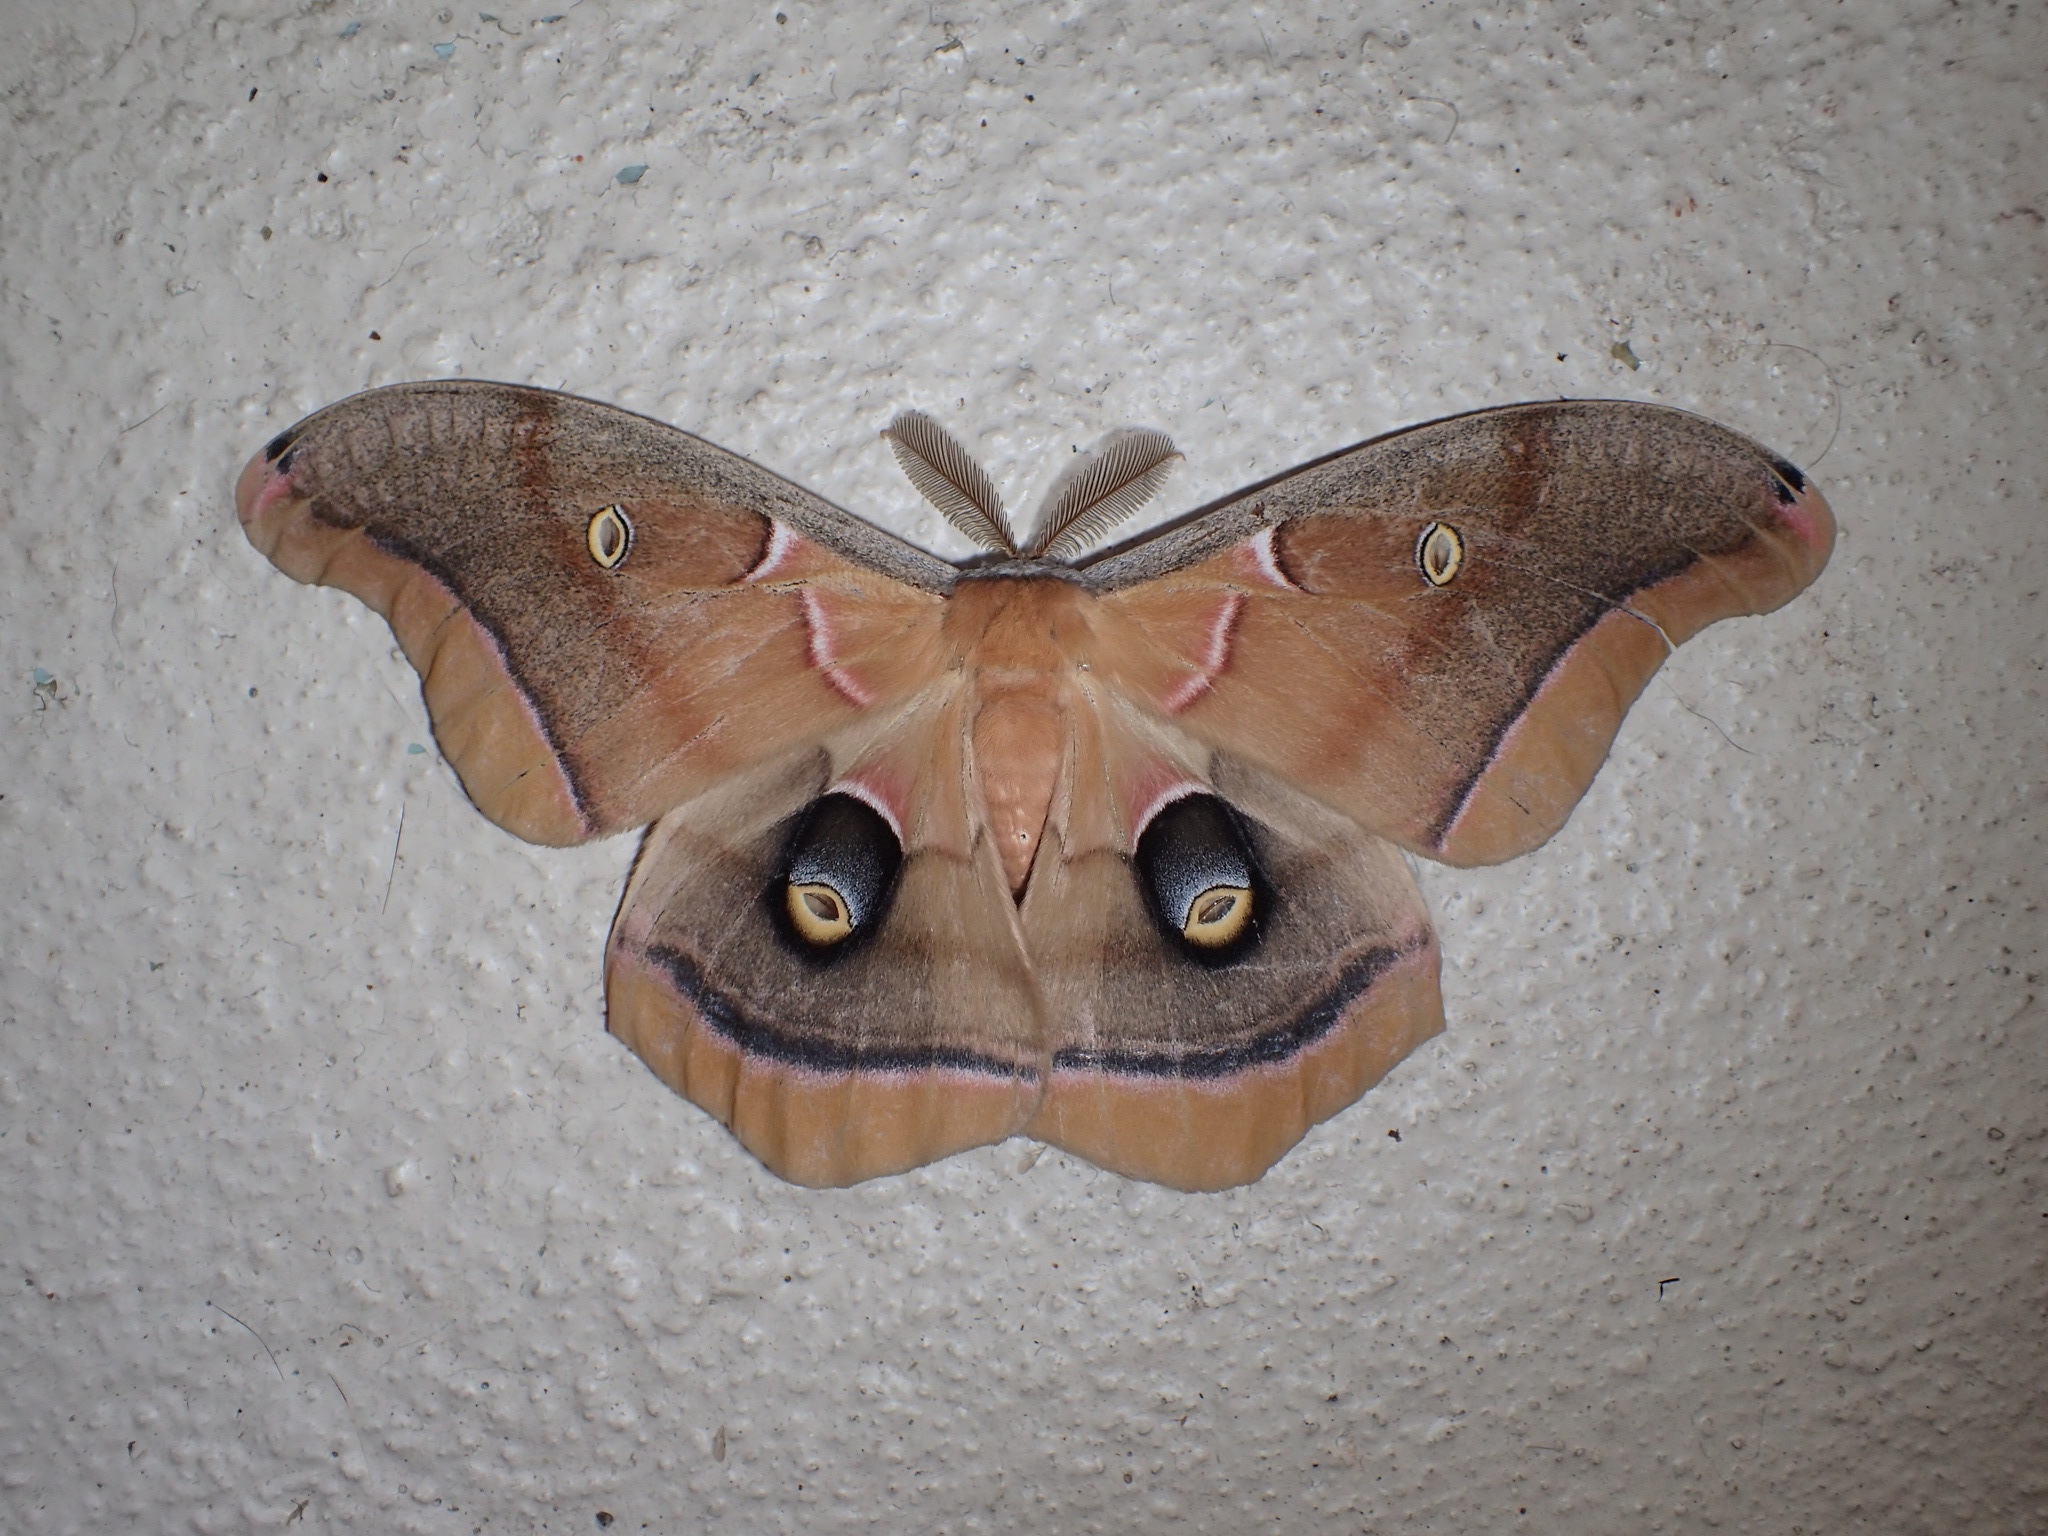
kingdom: Animalia
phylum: Arthropoda
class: Insecta
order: Lepidoptera
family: Saturniidae
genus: Antheraea
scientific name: Antheraea polyphemus
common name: Polyphemus moth
